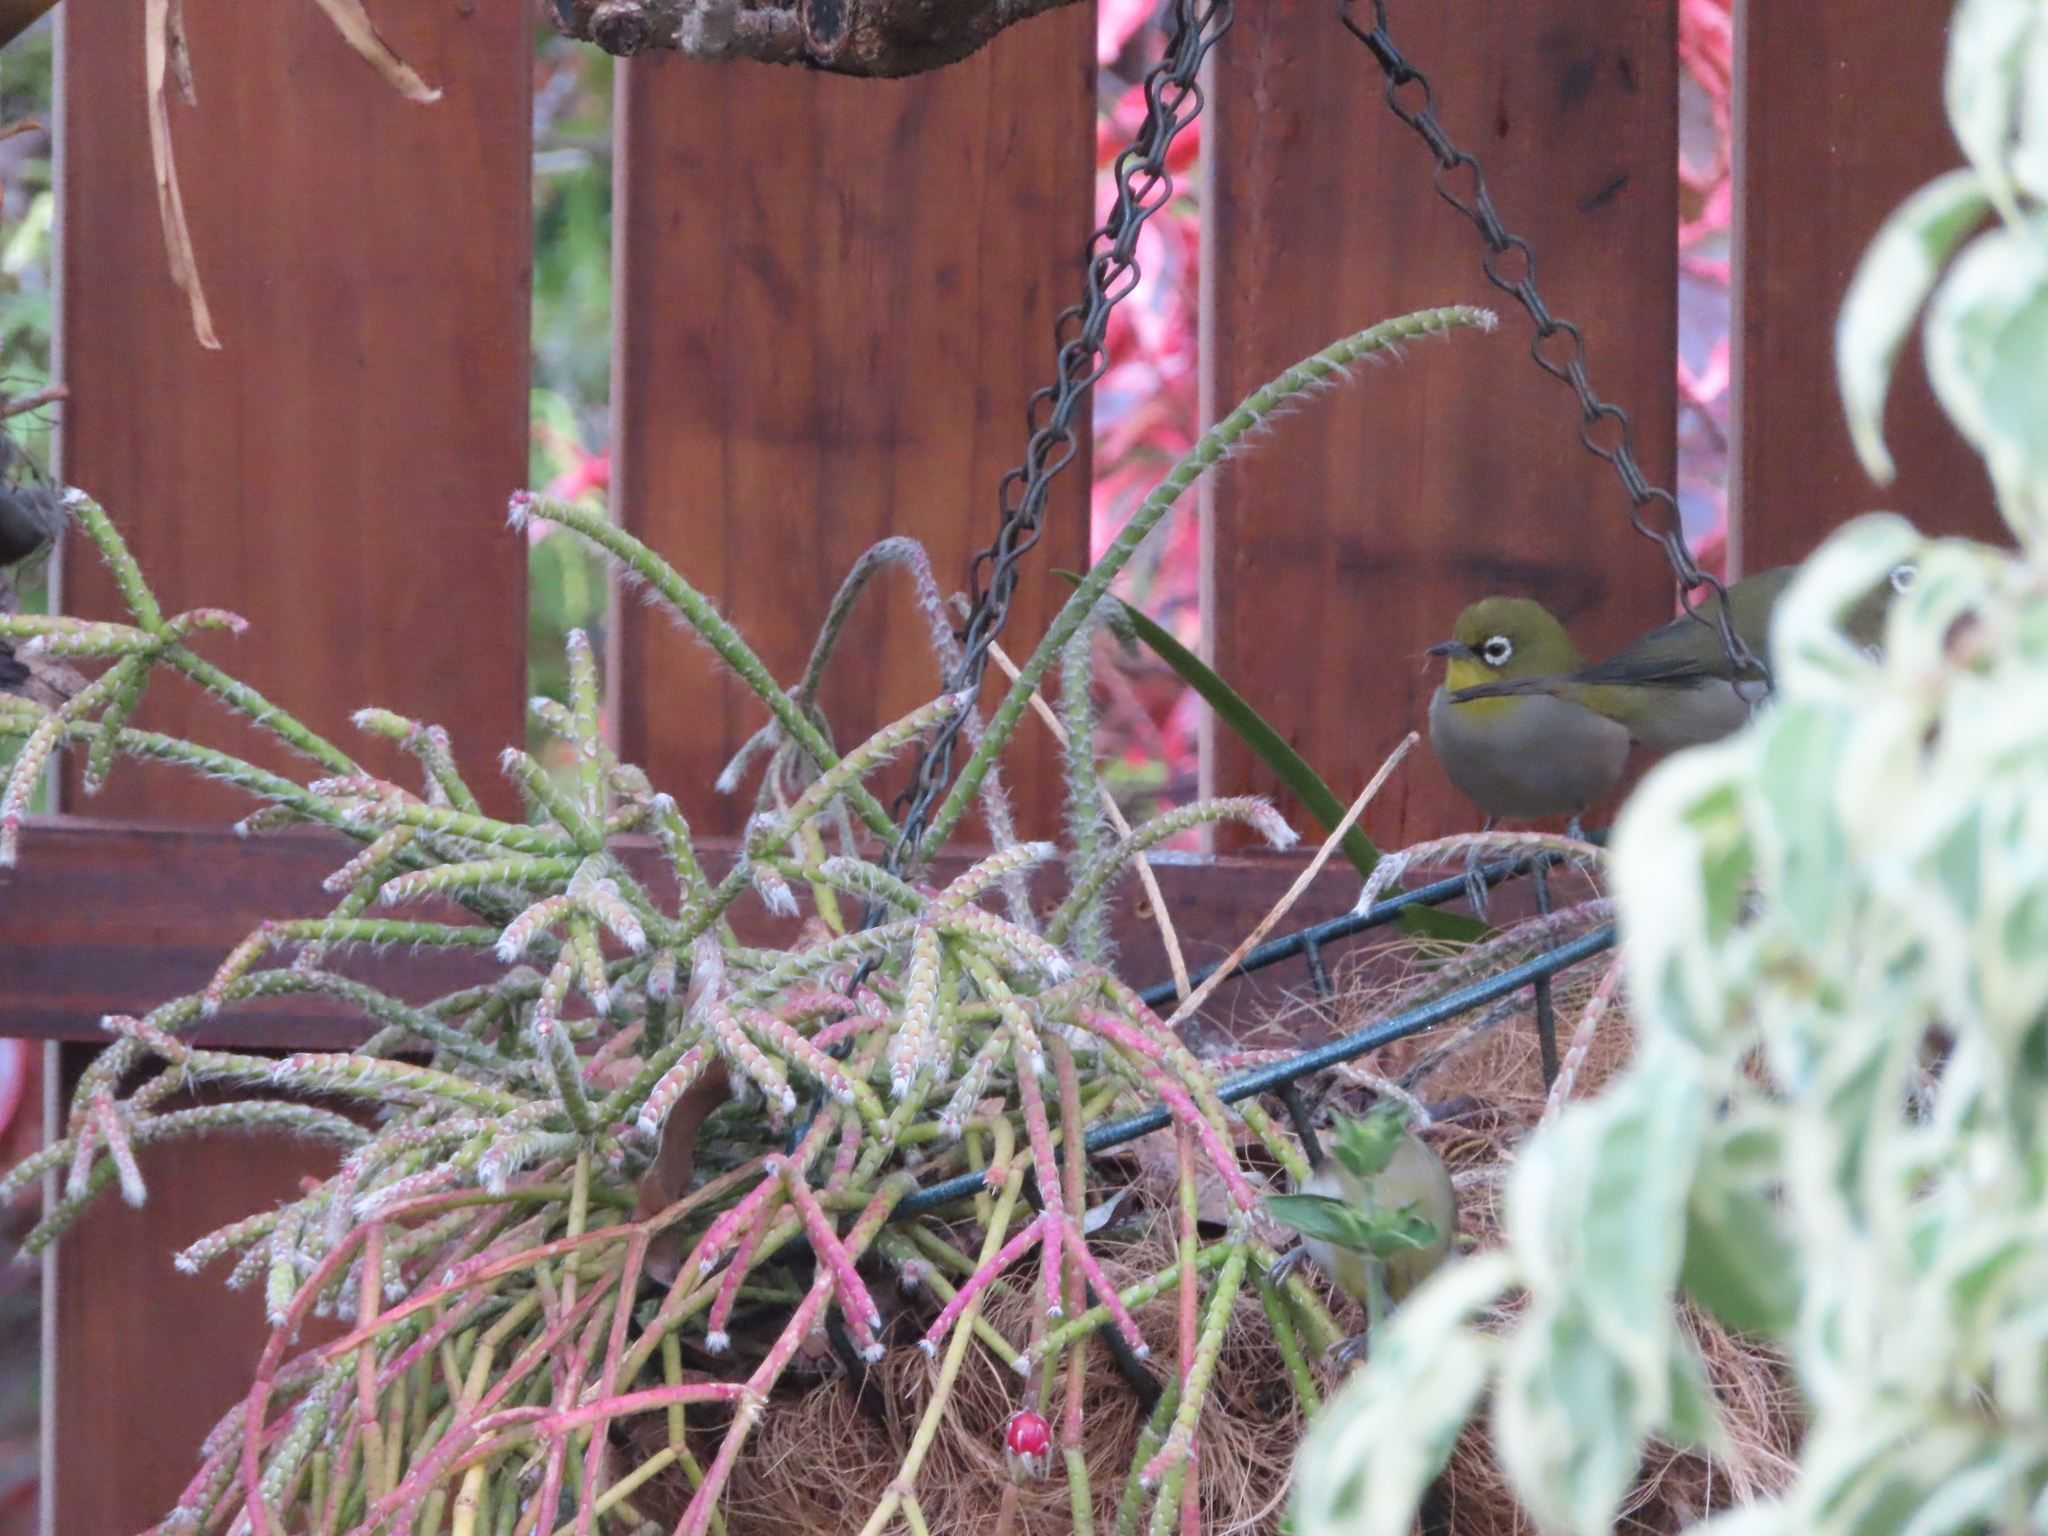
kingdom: Animalia
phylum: Chordata
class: Aves
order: Passeriformes
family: Zosteropidae
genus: Zosterops
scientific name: Zosterops virens
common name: Cape white-eye
